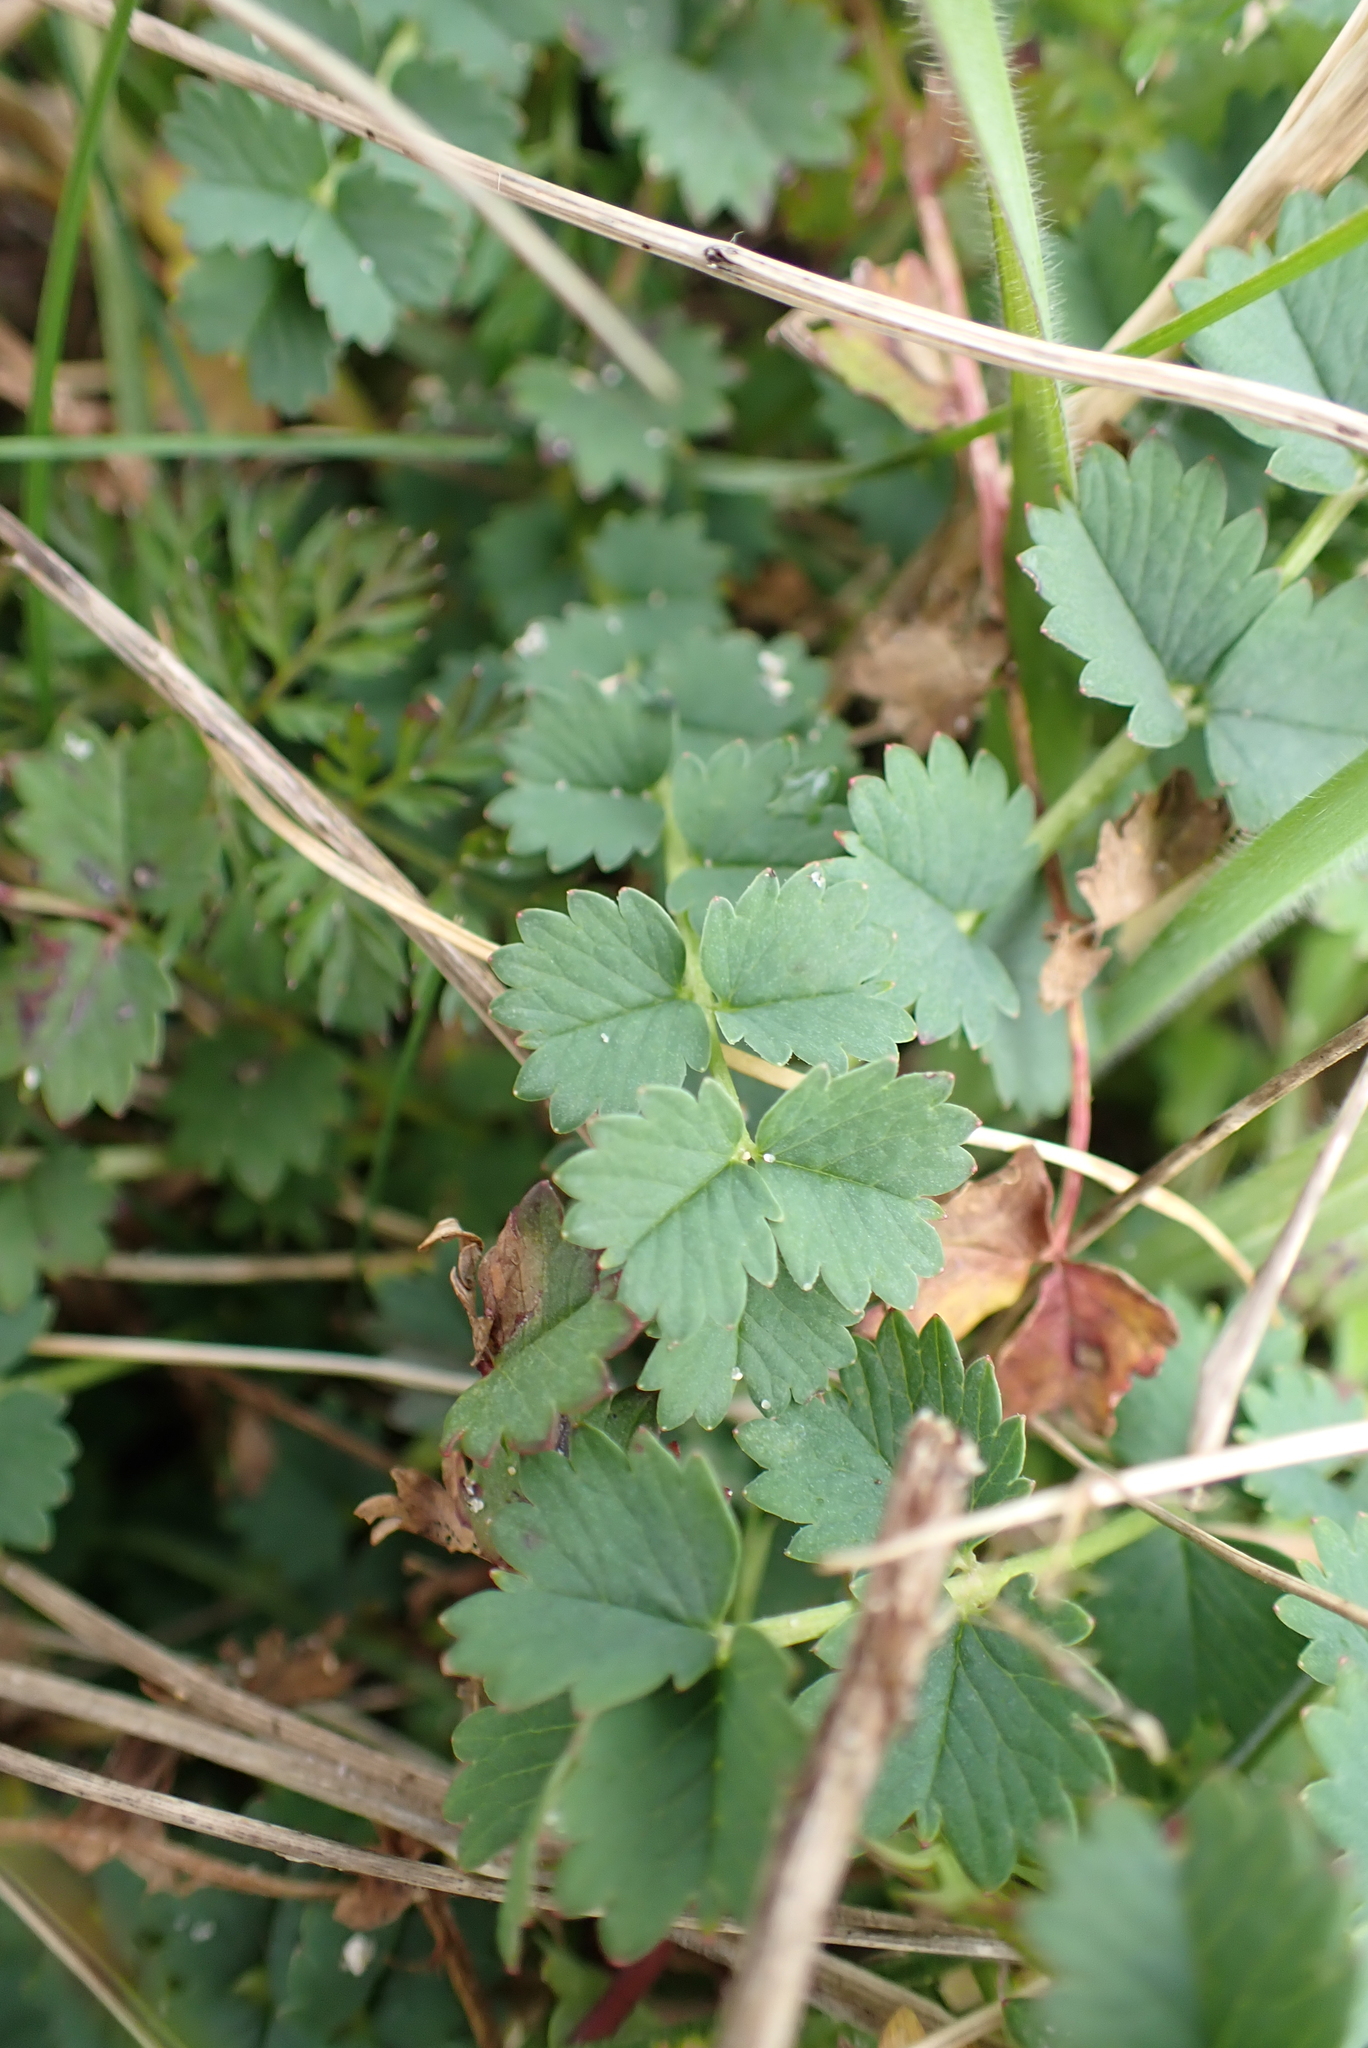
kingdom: Plantae
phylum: Tracheophyta
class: Magnoliopsida
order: Rosales
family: Rosaceae
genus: Poterium
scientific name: Poterium sanguisorba
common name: Salad burnet
